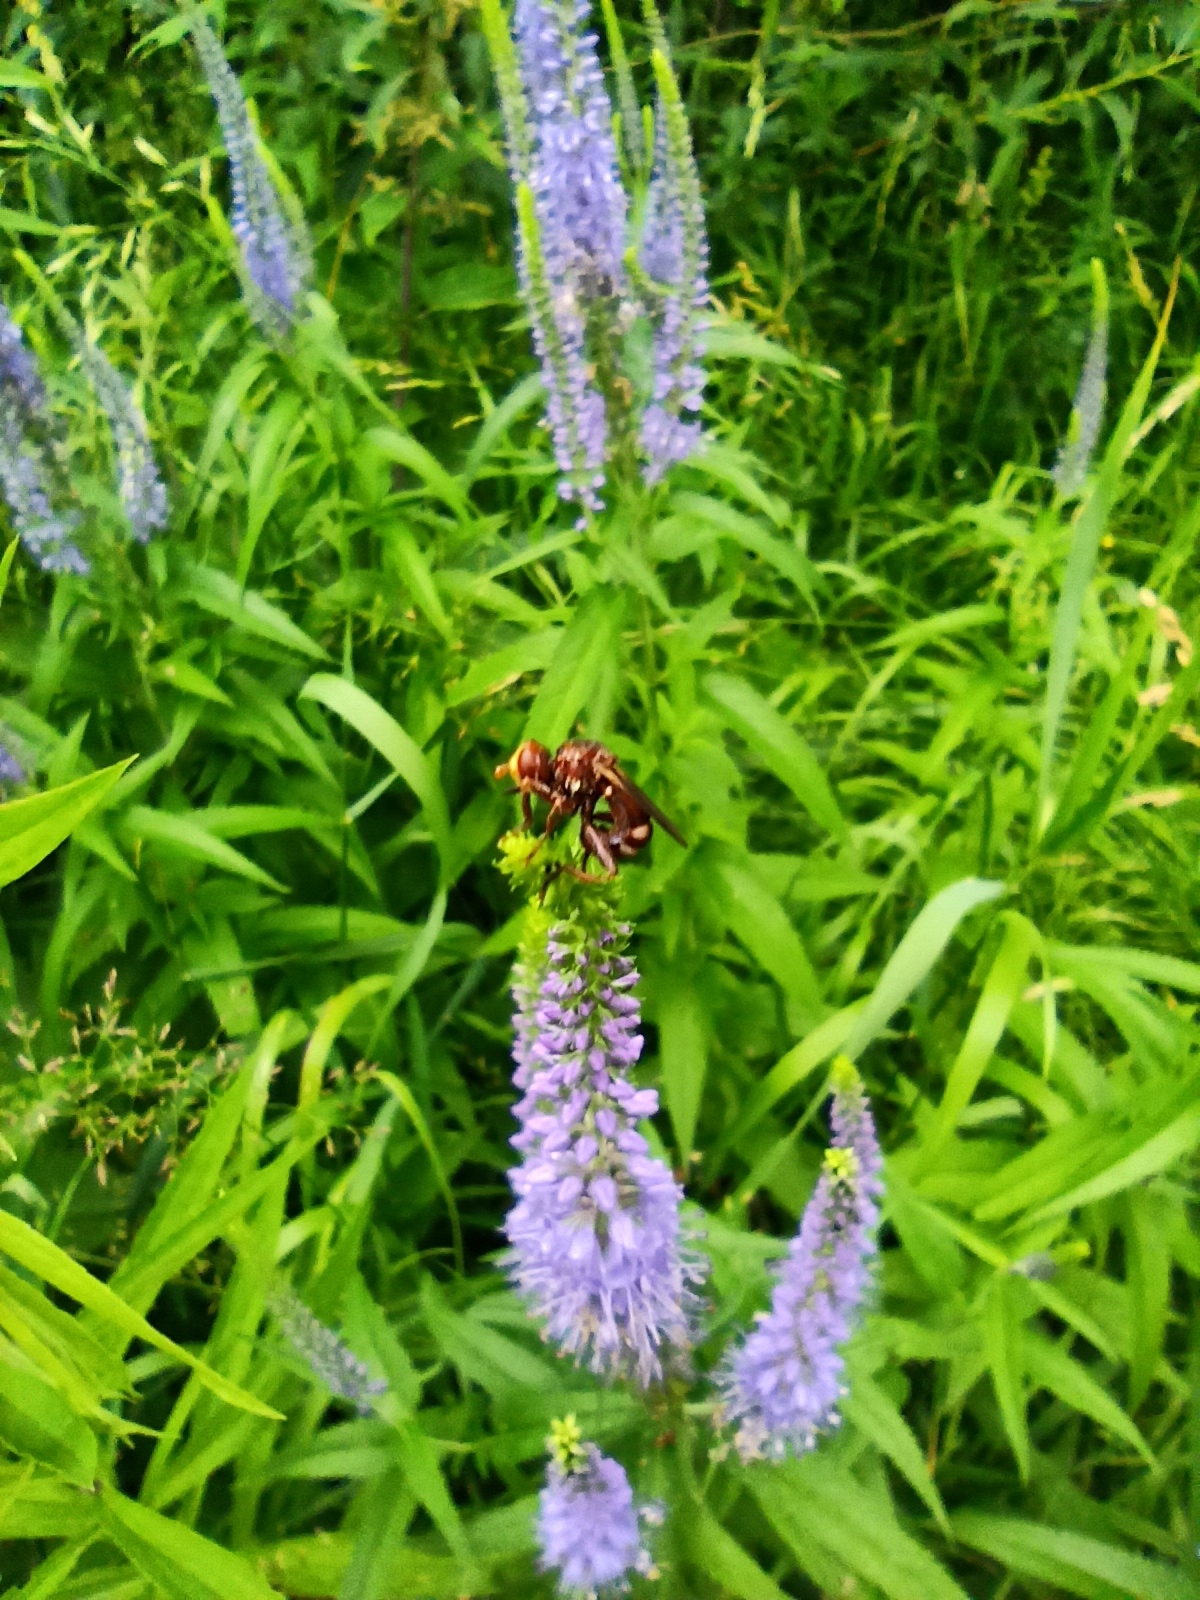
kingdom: Plantae
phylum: Tracheophyta
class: Magnoliopsida
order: Lamiales
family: Plantaginaceae
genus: Veronica
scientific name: Veronica longifolia
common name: Garden speedwell
